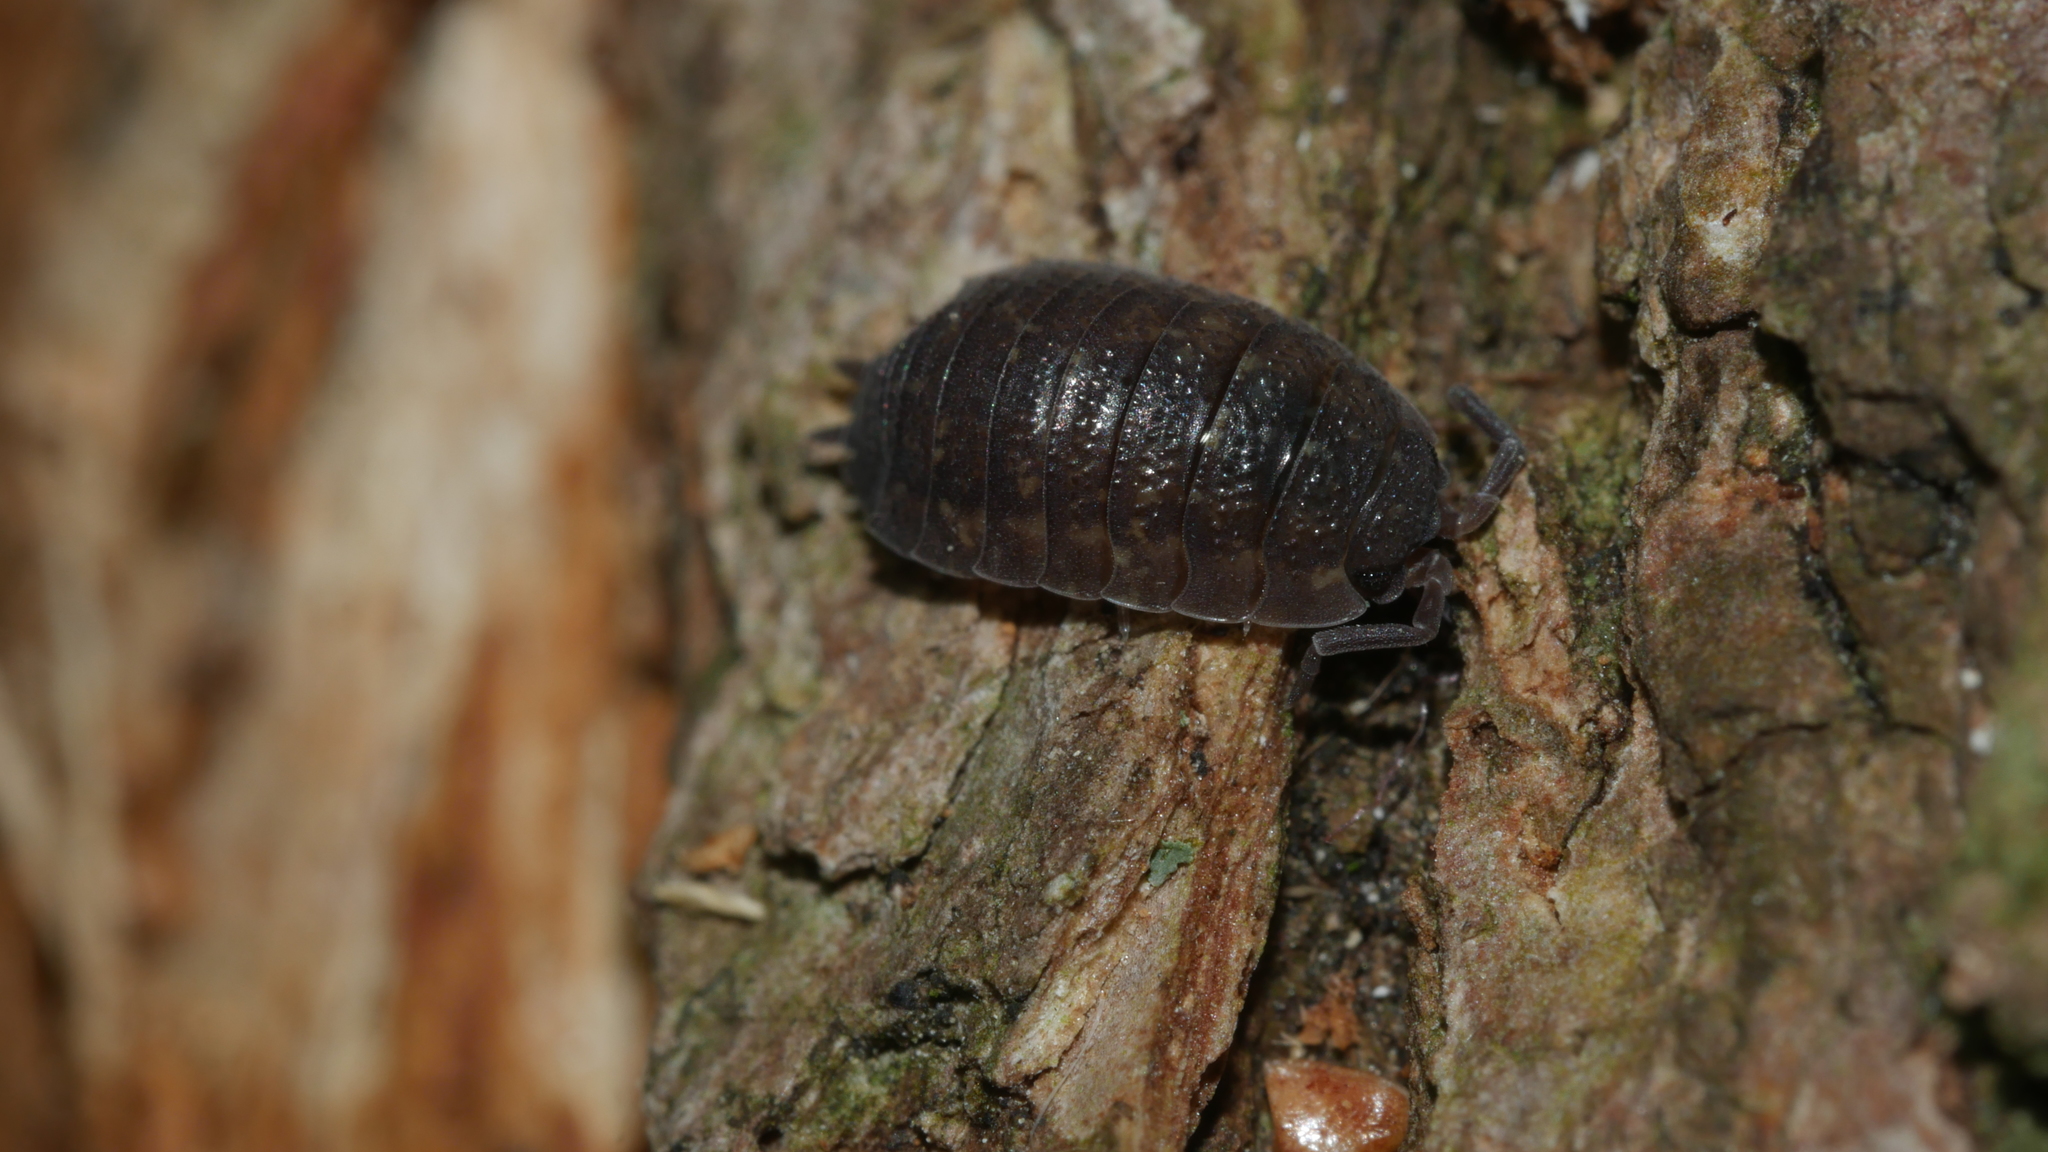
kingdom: Animalia
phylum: Arthropoda
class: Malacostraca
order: Isopoda
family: Porcellionidae
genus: Porcellio
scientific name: Porcellio scaber
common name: Common rough woodlouse
